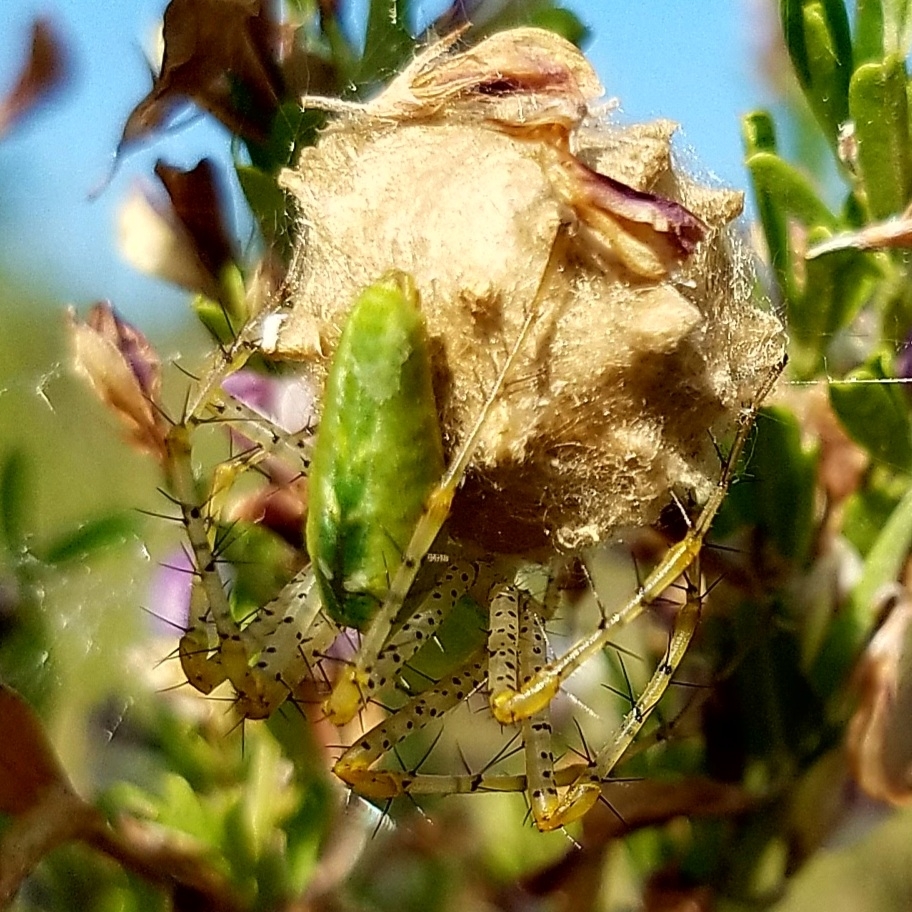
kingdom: Animalia
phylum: Arthropoda
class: Arachnida
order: Araneae
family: Oxyopidae
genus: Peucetia
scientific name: Peucetia viridans
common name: Lynx spiders
